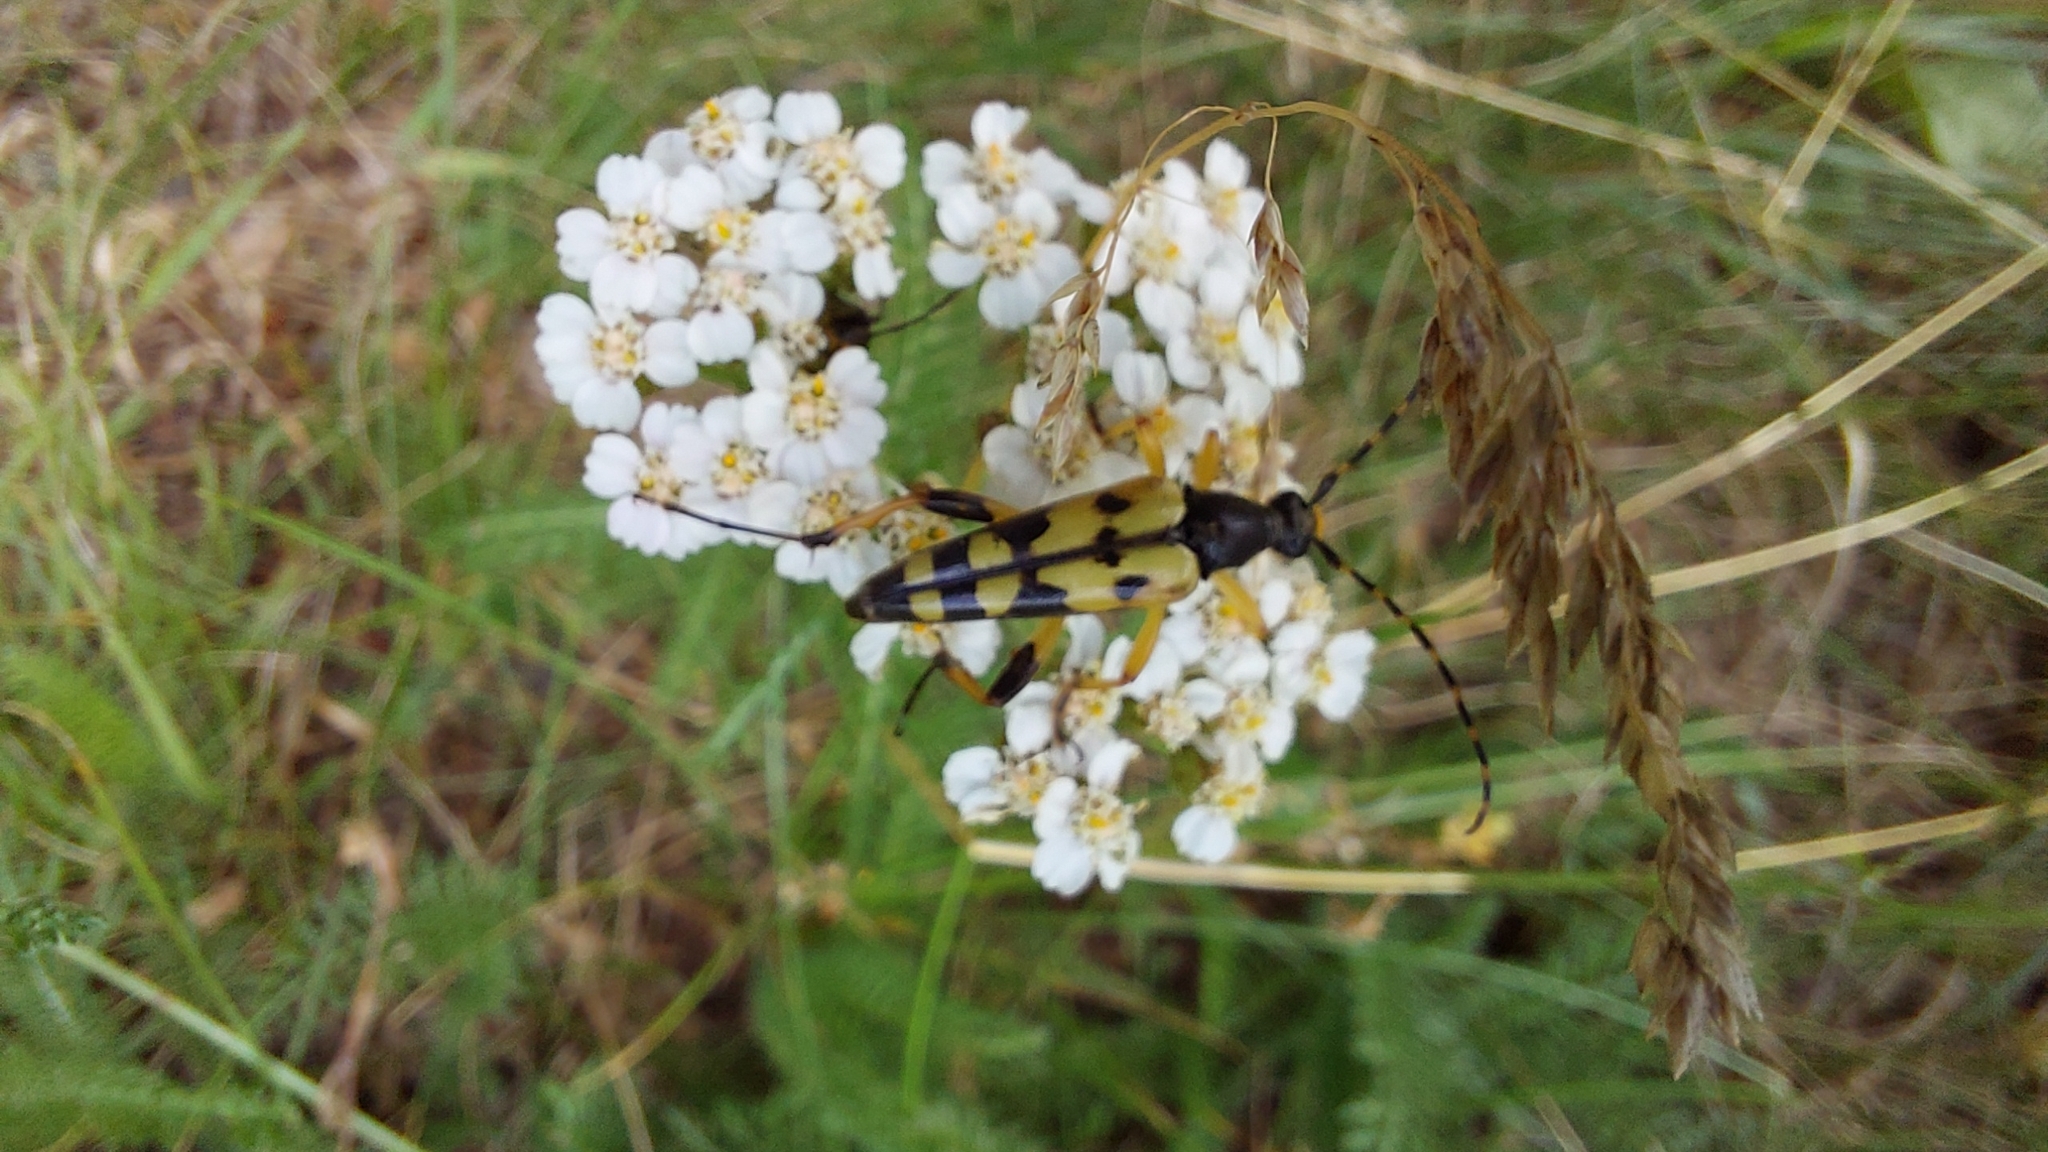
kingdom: Animalia
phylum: Arthropoda
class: Insecta
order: Coleoptera
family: Cerambycidae
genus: Rutpela
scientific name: Rutpela maculata
